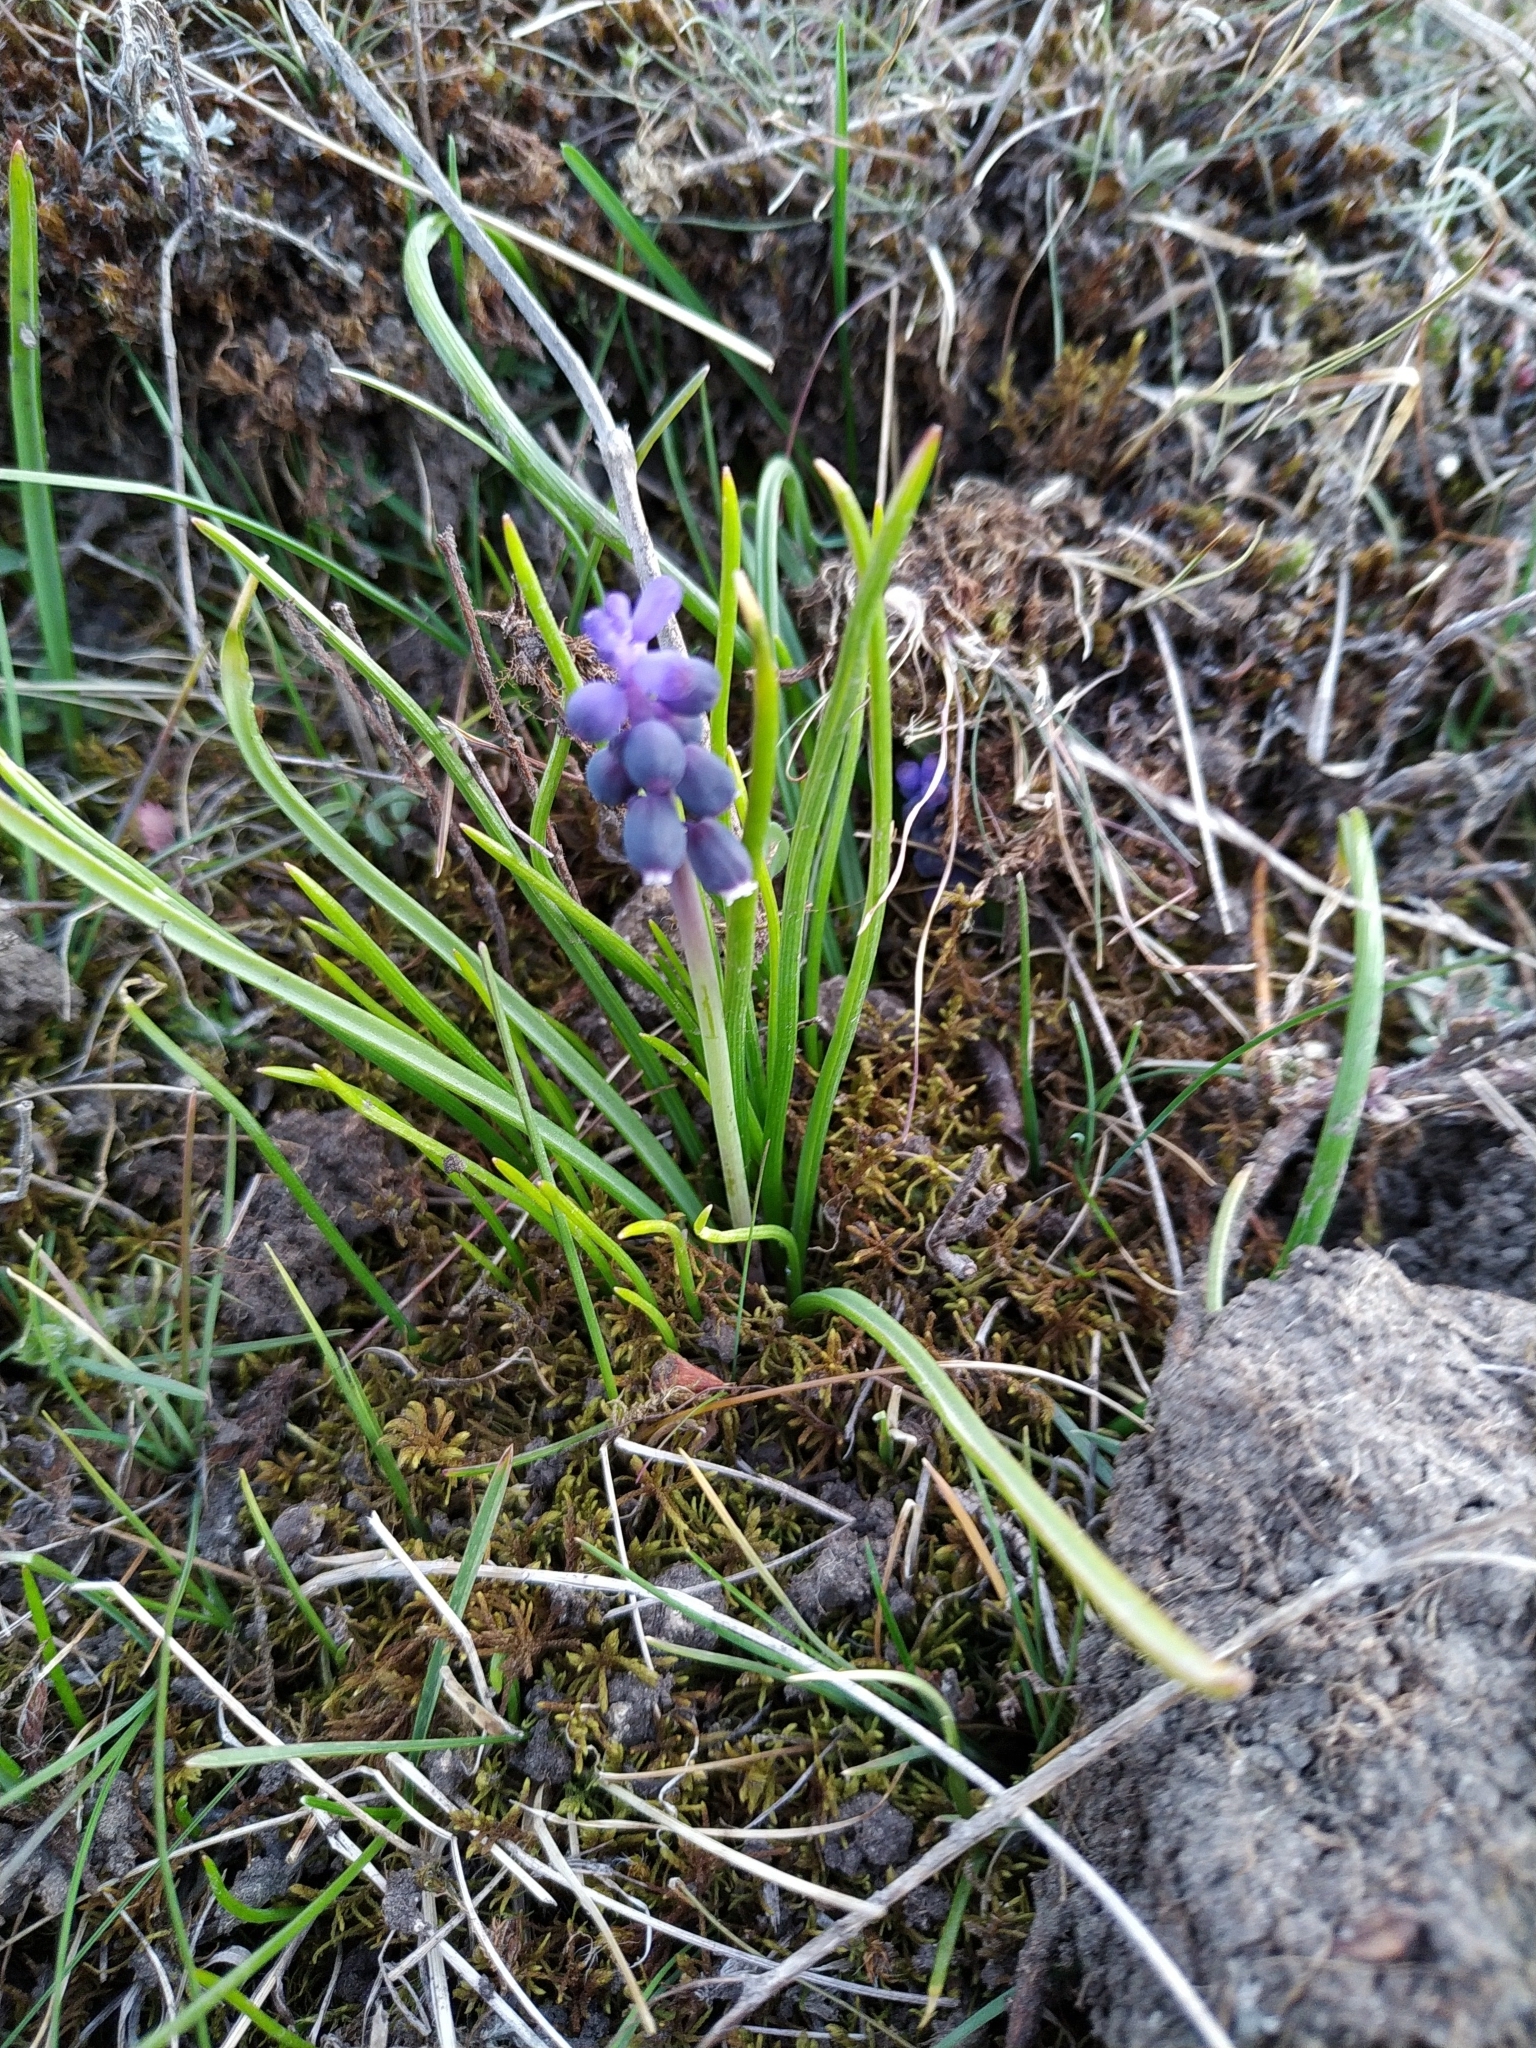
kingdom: Plantae
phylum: Tracheophyta
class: Liliopsida
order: Asparagales
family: Asparagaceae
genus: Muscari
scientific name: Muscari neglectum
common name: Grape-hyacinth
